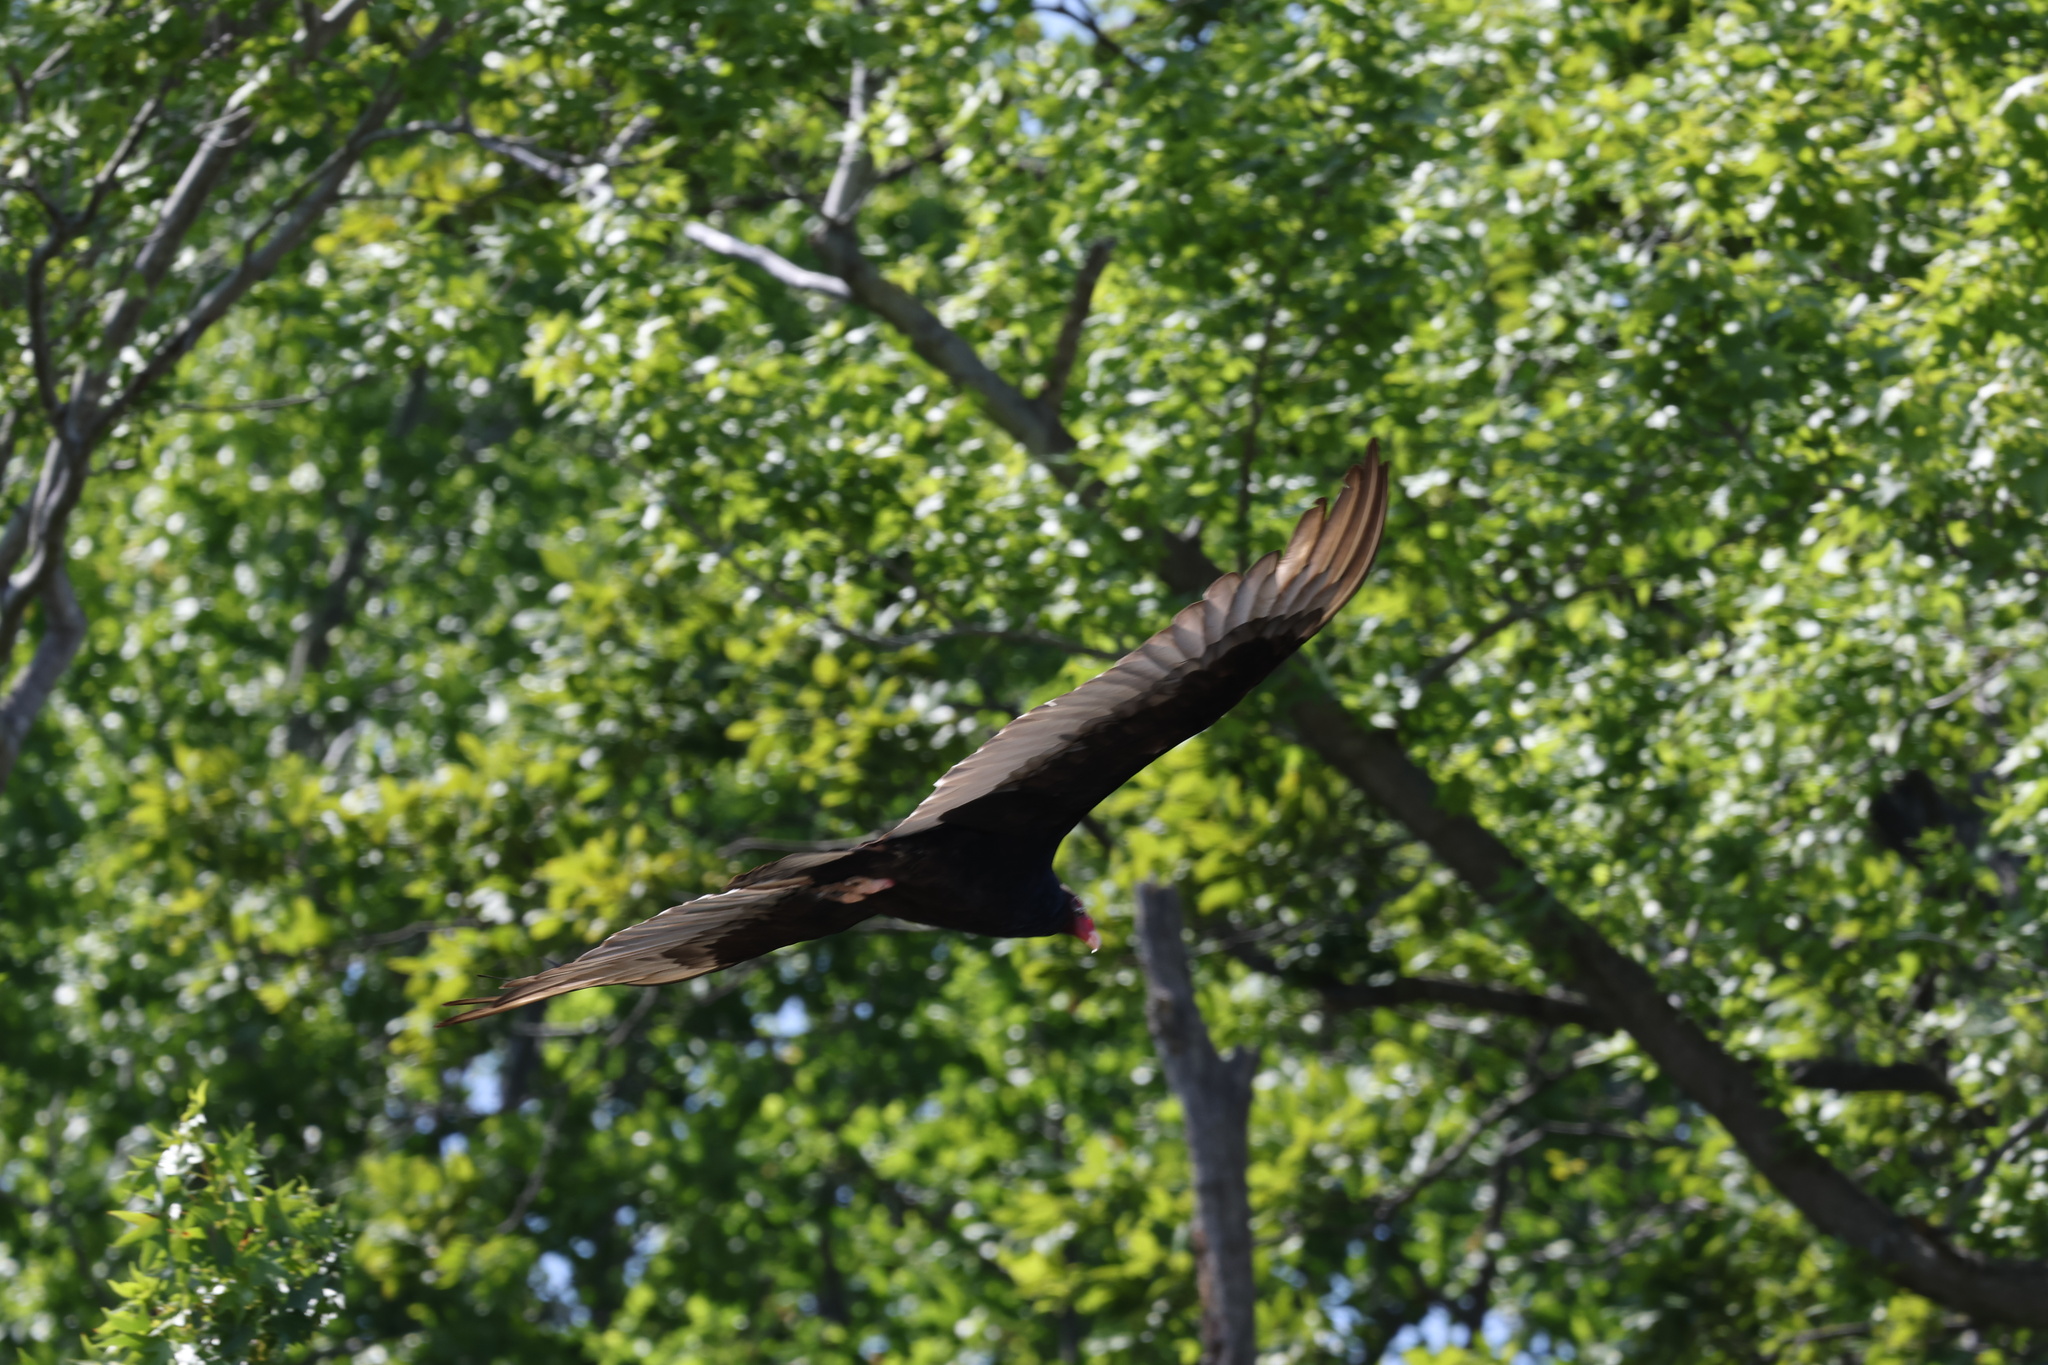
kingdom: Animalia
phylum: Chordata
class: Aves
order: Accipitriformes
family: Cathartidae
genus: Cathartes
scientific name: Cathartes aura
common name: Turkey vulture
